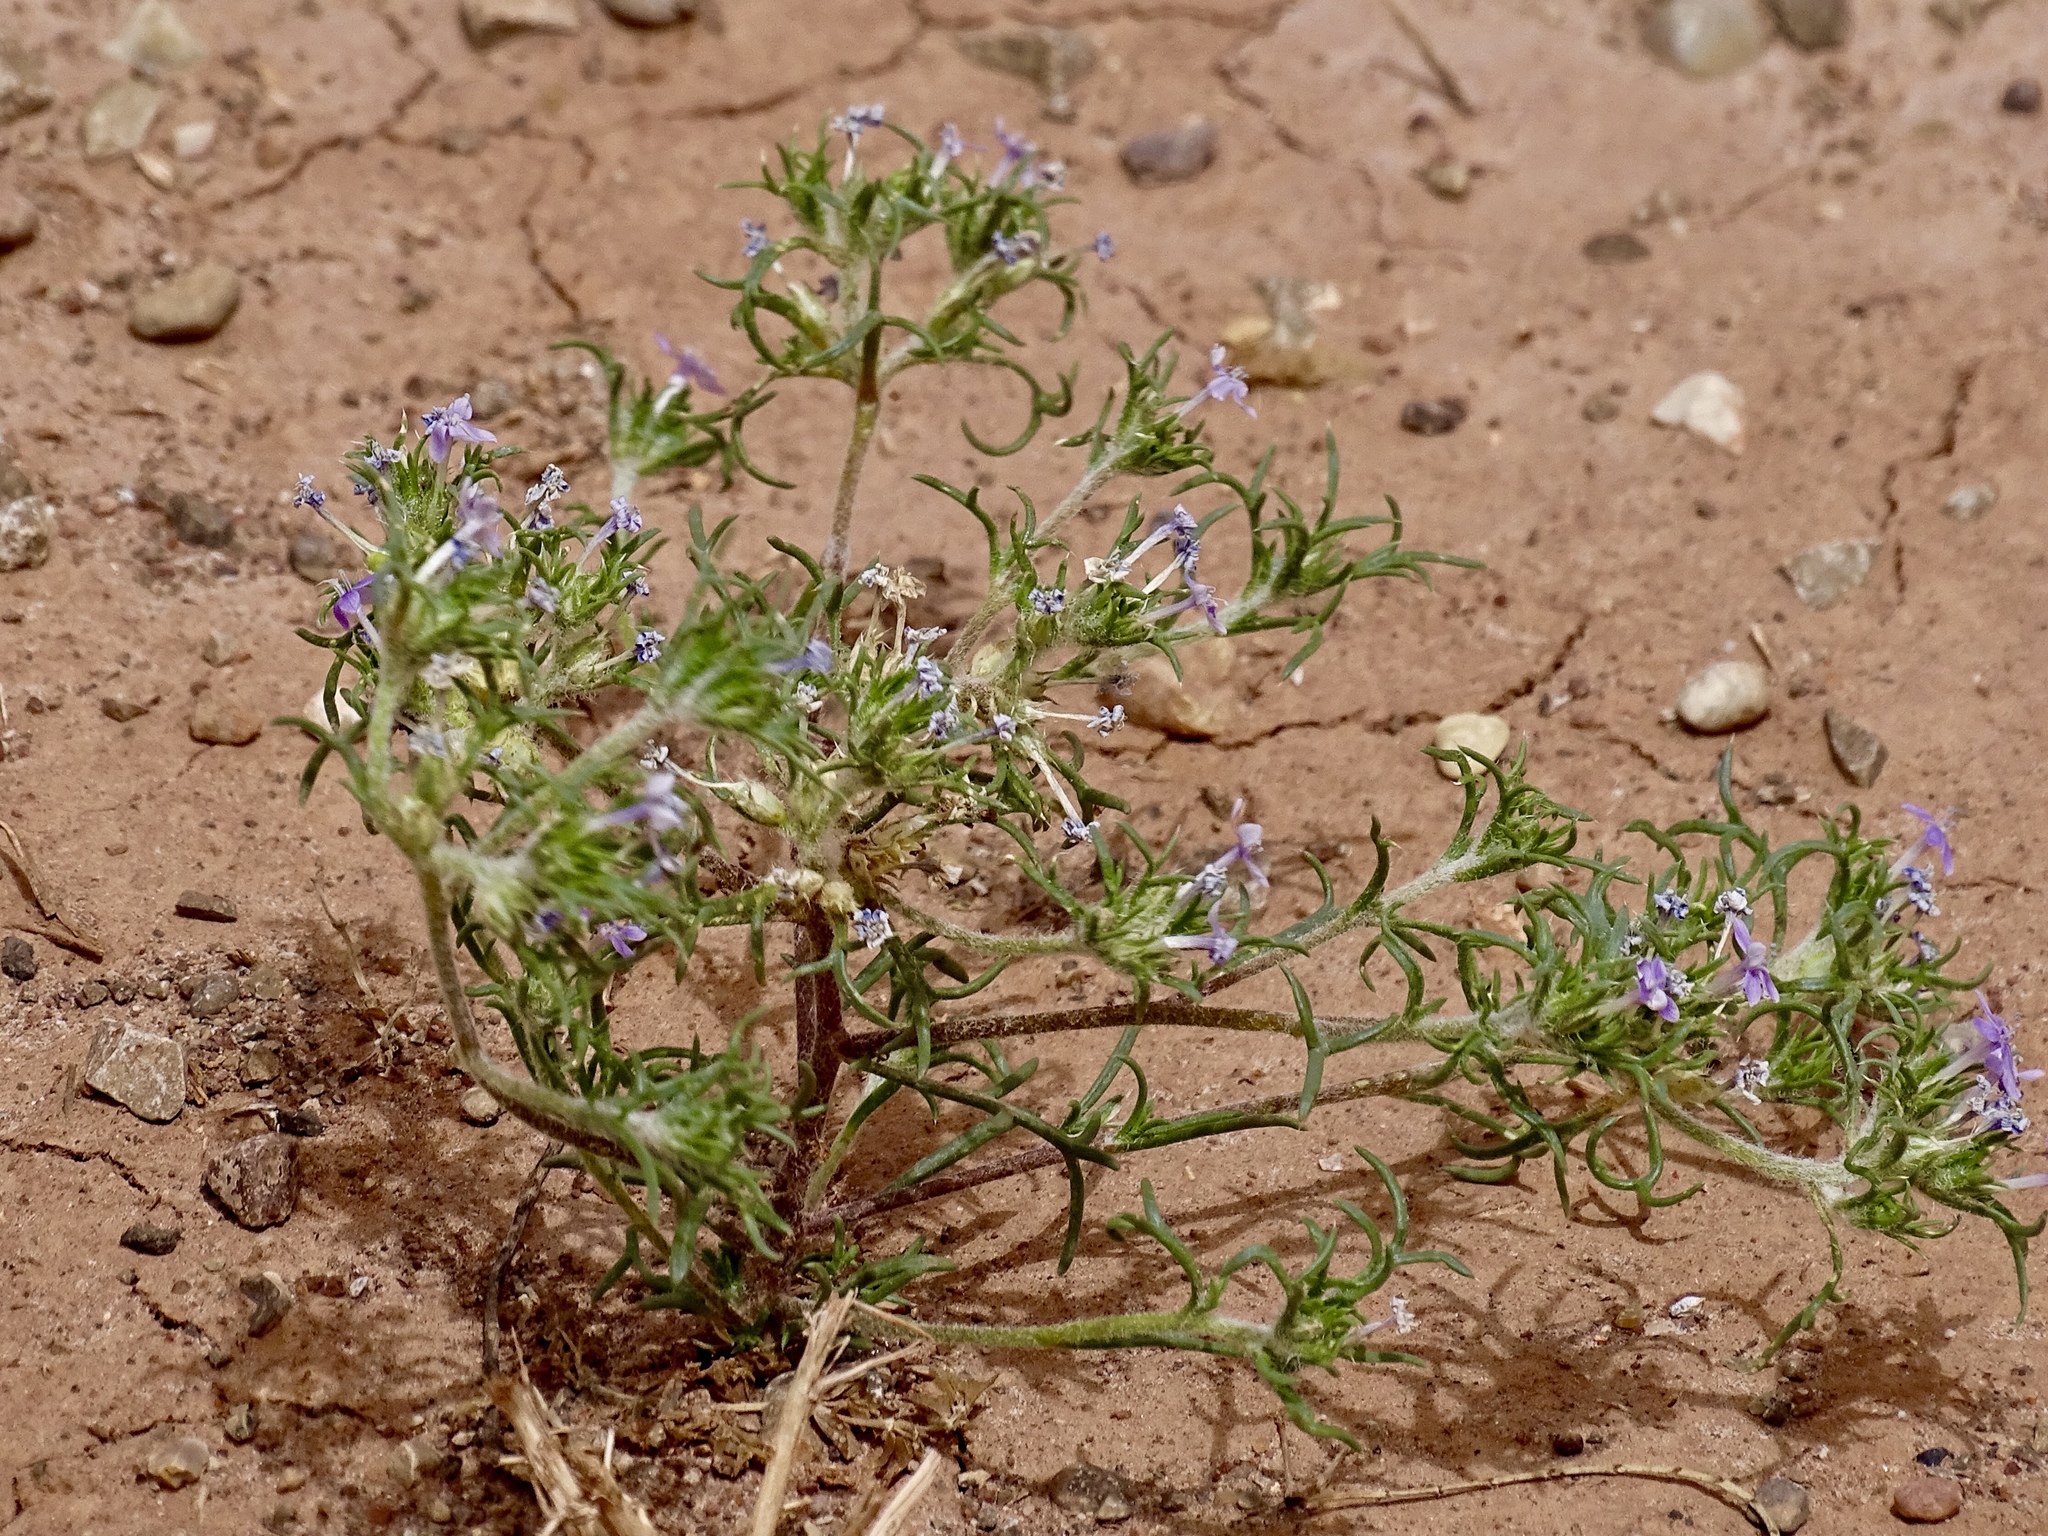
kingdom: Plantae
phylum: Tracheophyta
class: Magnoliopsida
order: Ericales
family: Polemoniaceae
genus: Ipomopsis
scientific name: Ipomopsis pumila
